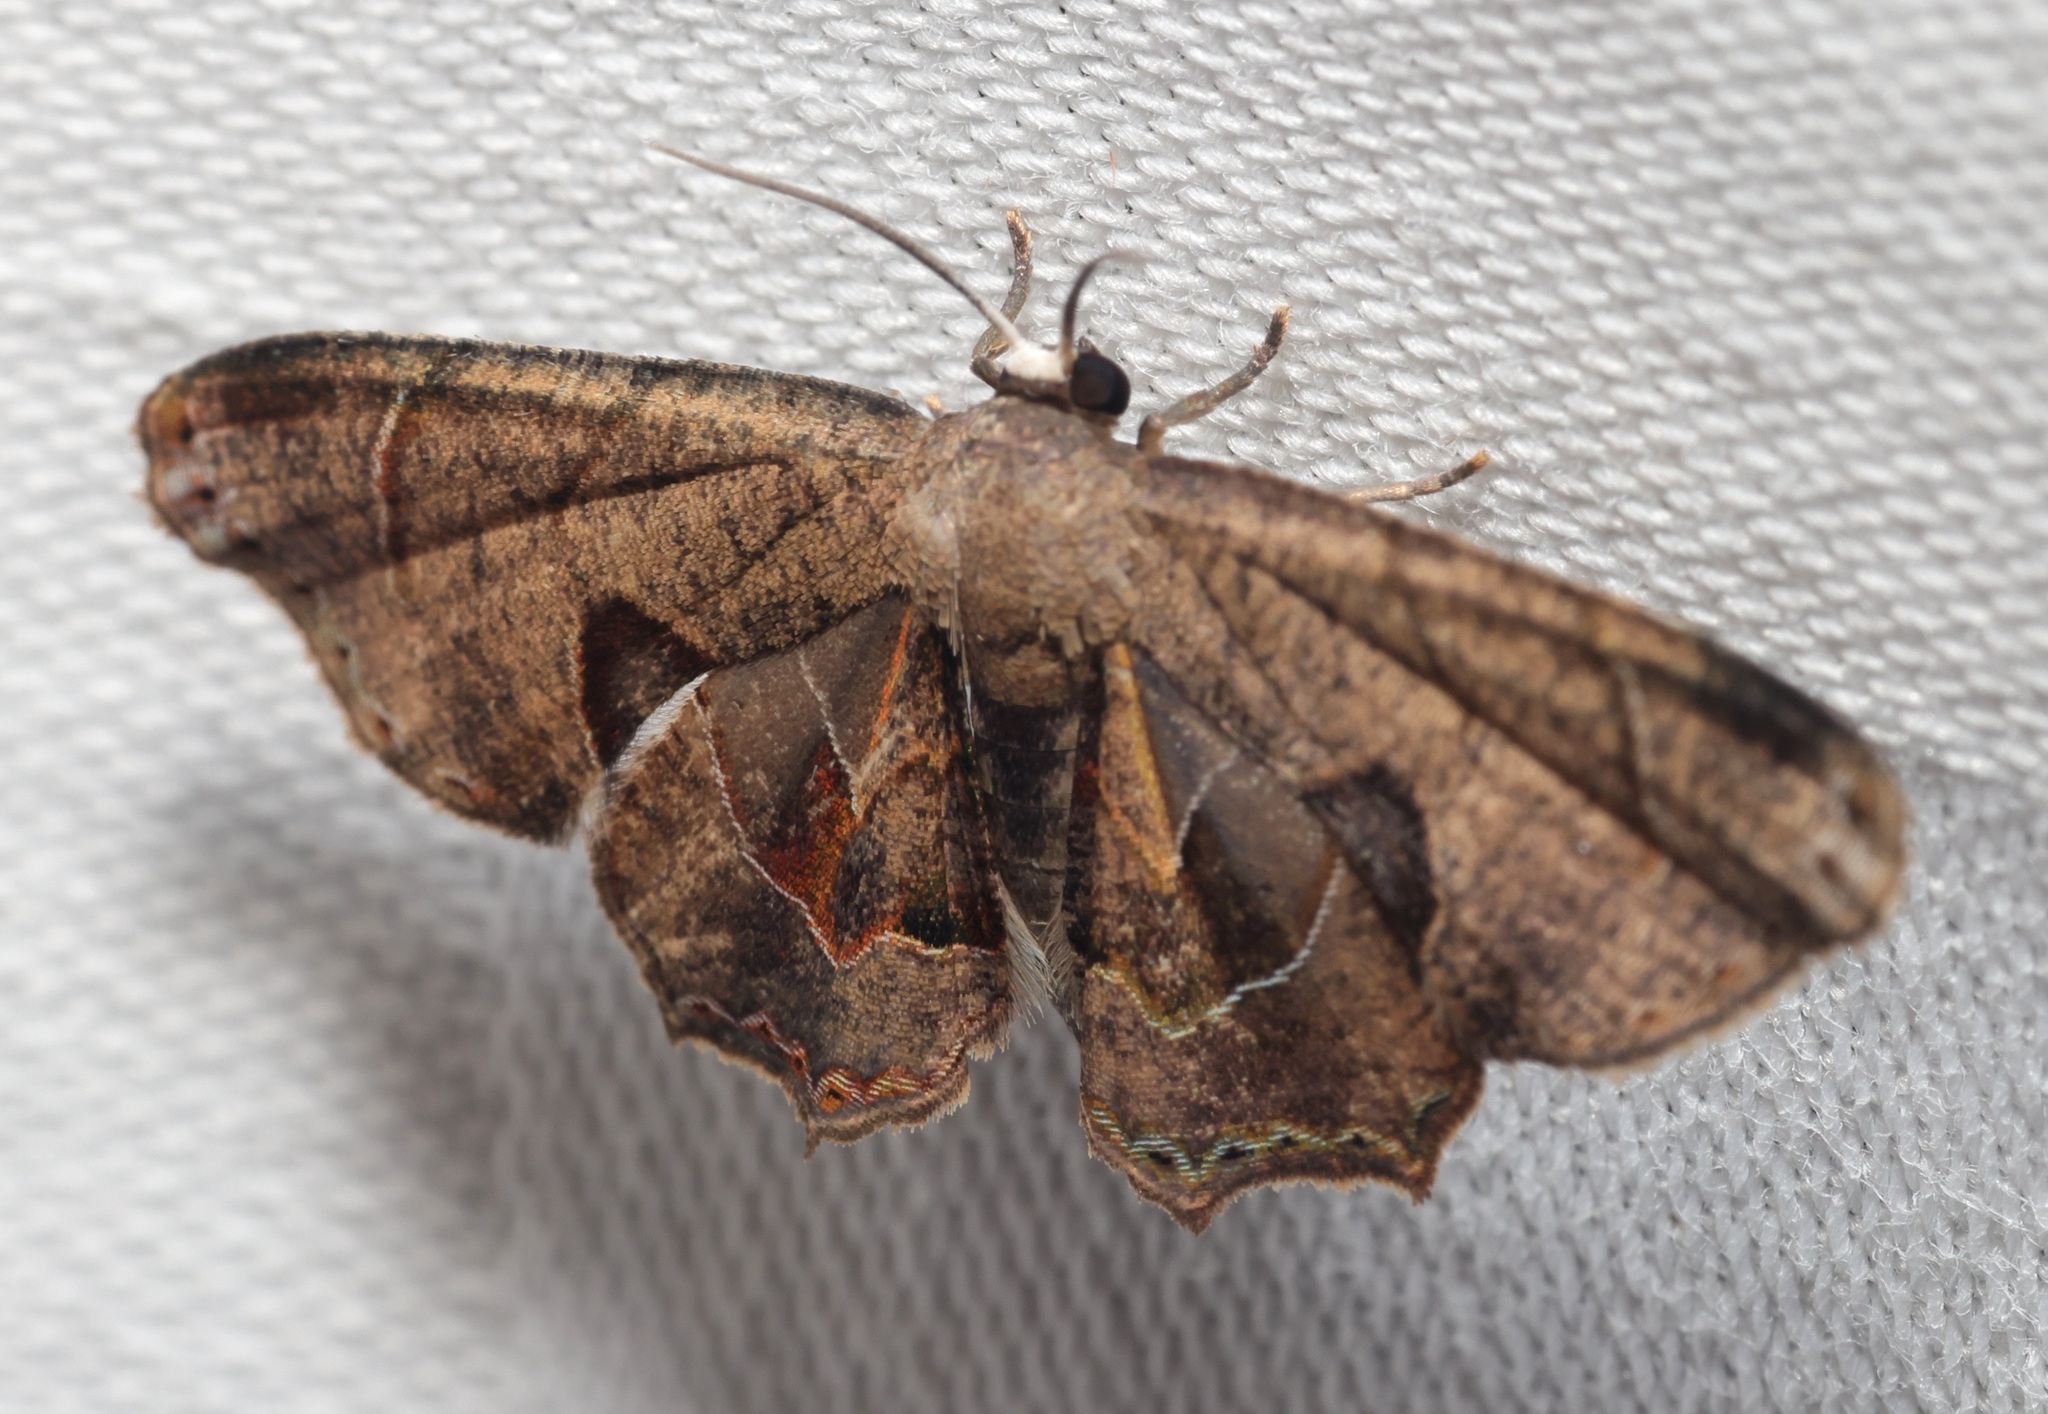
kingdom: Animalia
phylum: Arthropoda
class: Insecta
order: Lepidoptera
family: Uraniidae
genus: Phazaca
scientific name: Phazaca leucocera
